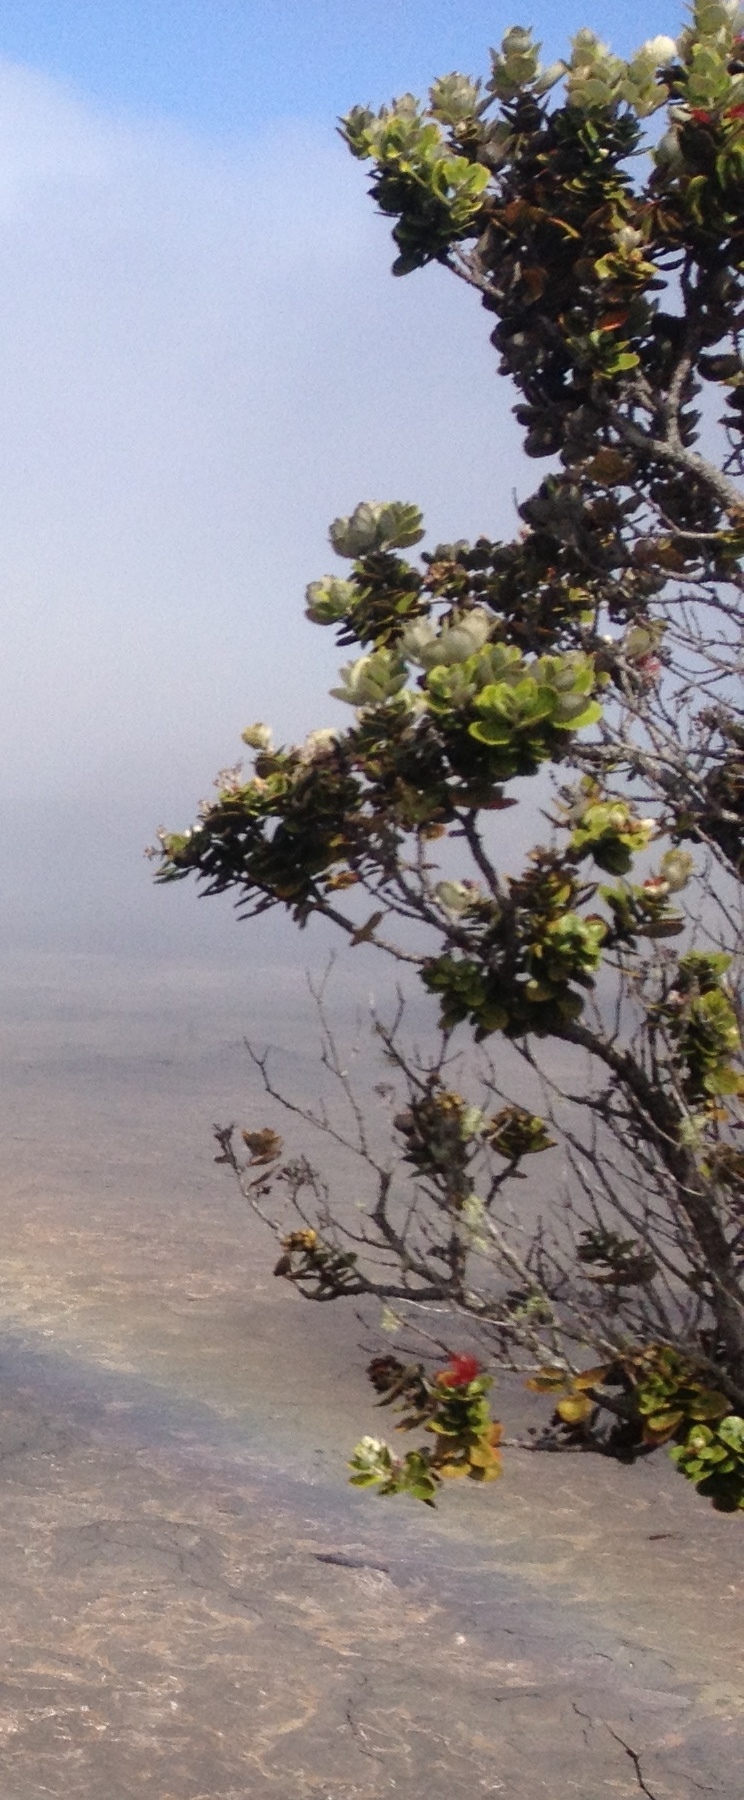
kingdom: Plantae
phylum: Tracheophyta
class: Magnoliopsida
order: Myrtales
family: Myrtaceae
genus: Metrosideros
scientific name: Metrosideros polymorpha
